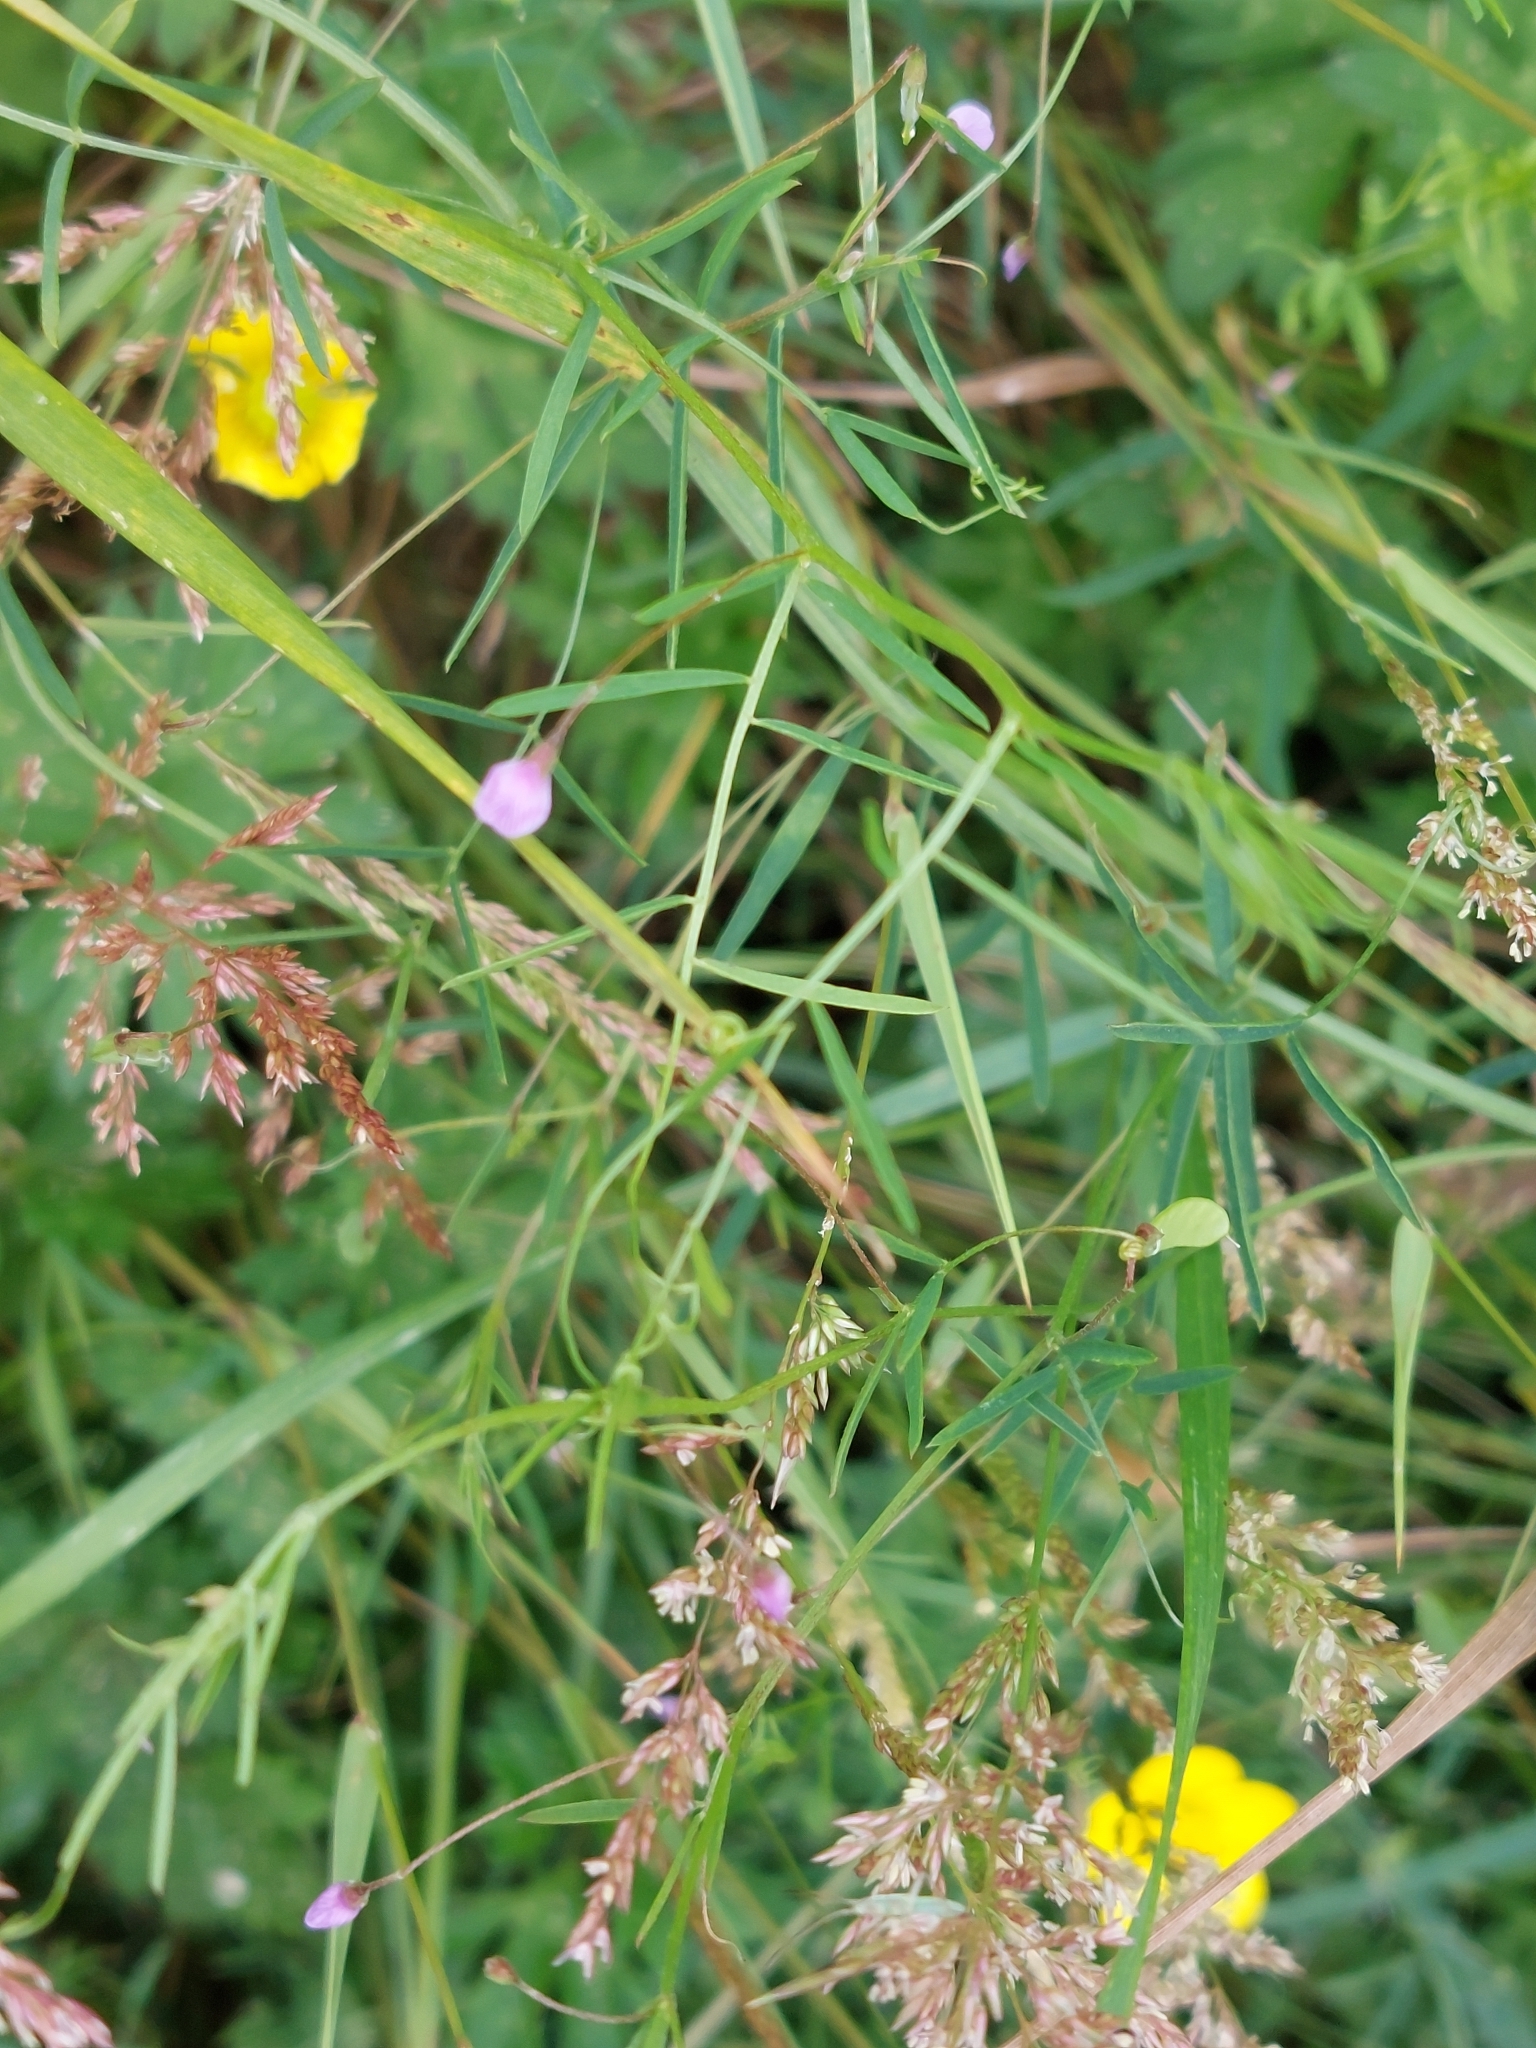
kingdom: Plantae
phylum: Tracheophyta
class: Magnoliopsida
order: Fabales
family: Fabaceae
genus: Vicia
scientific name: Vicia tetrasperma
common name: Smooth tare
